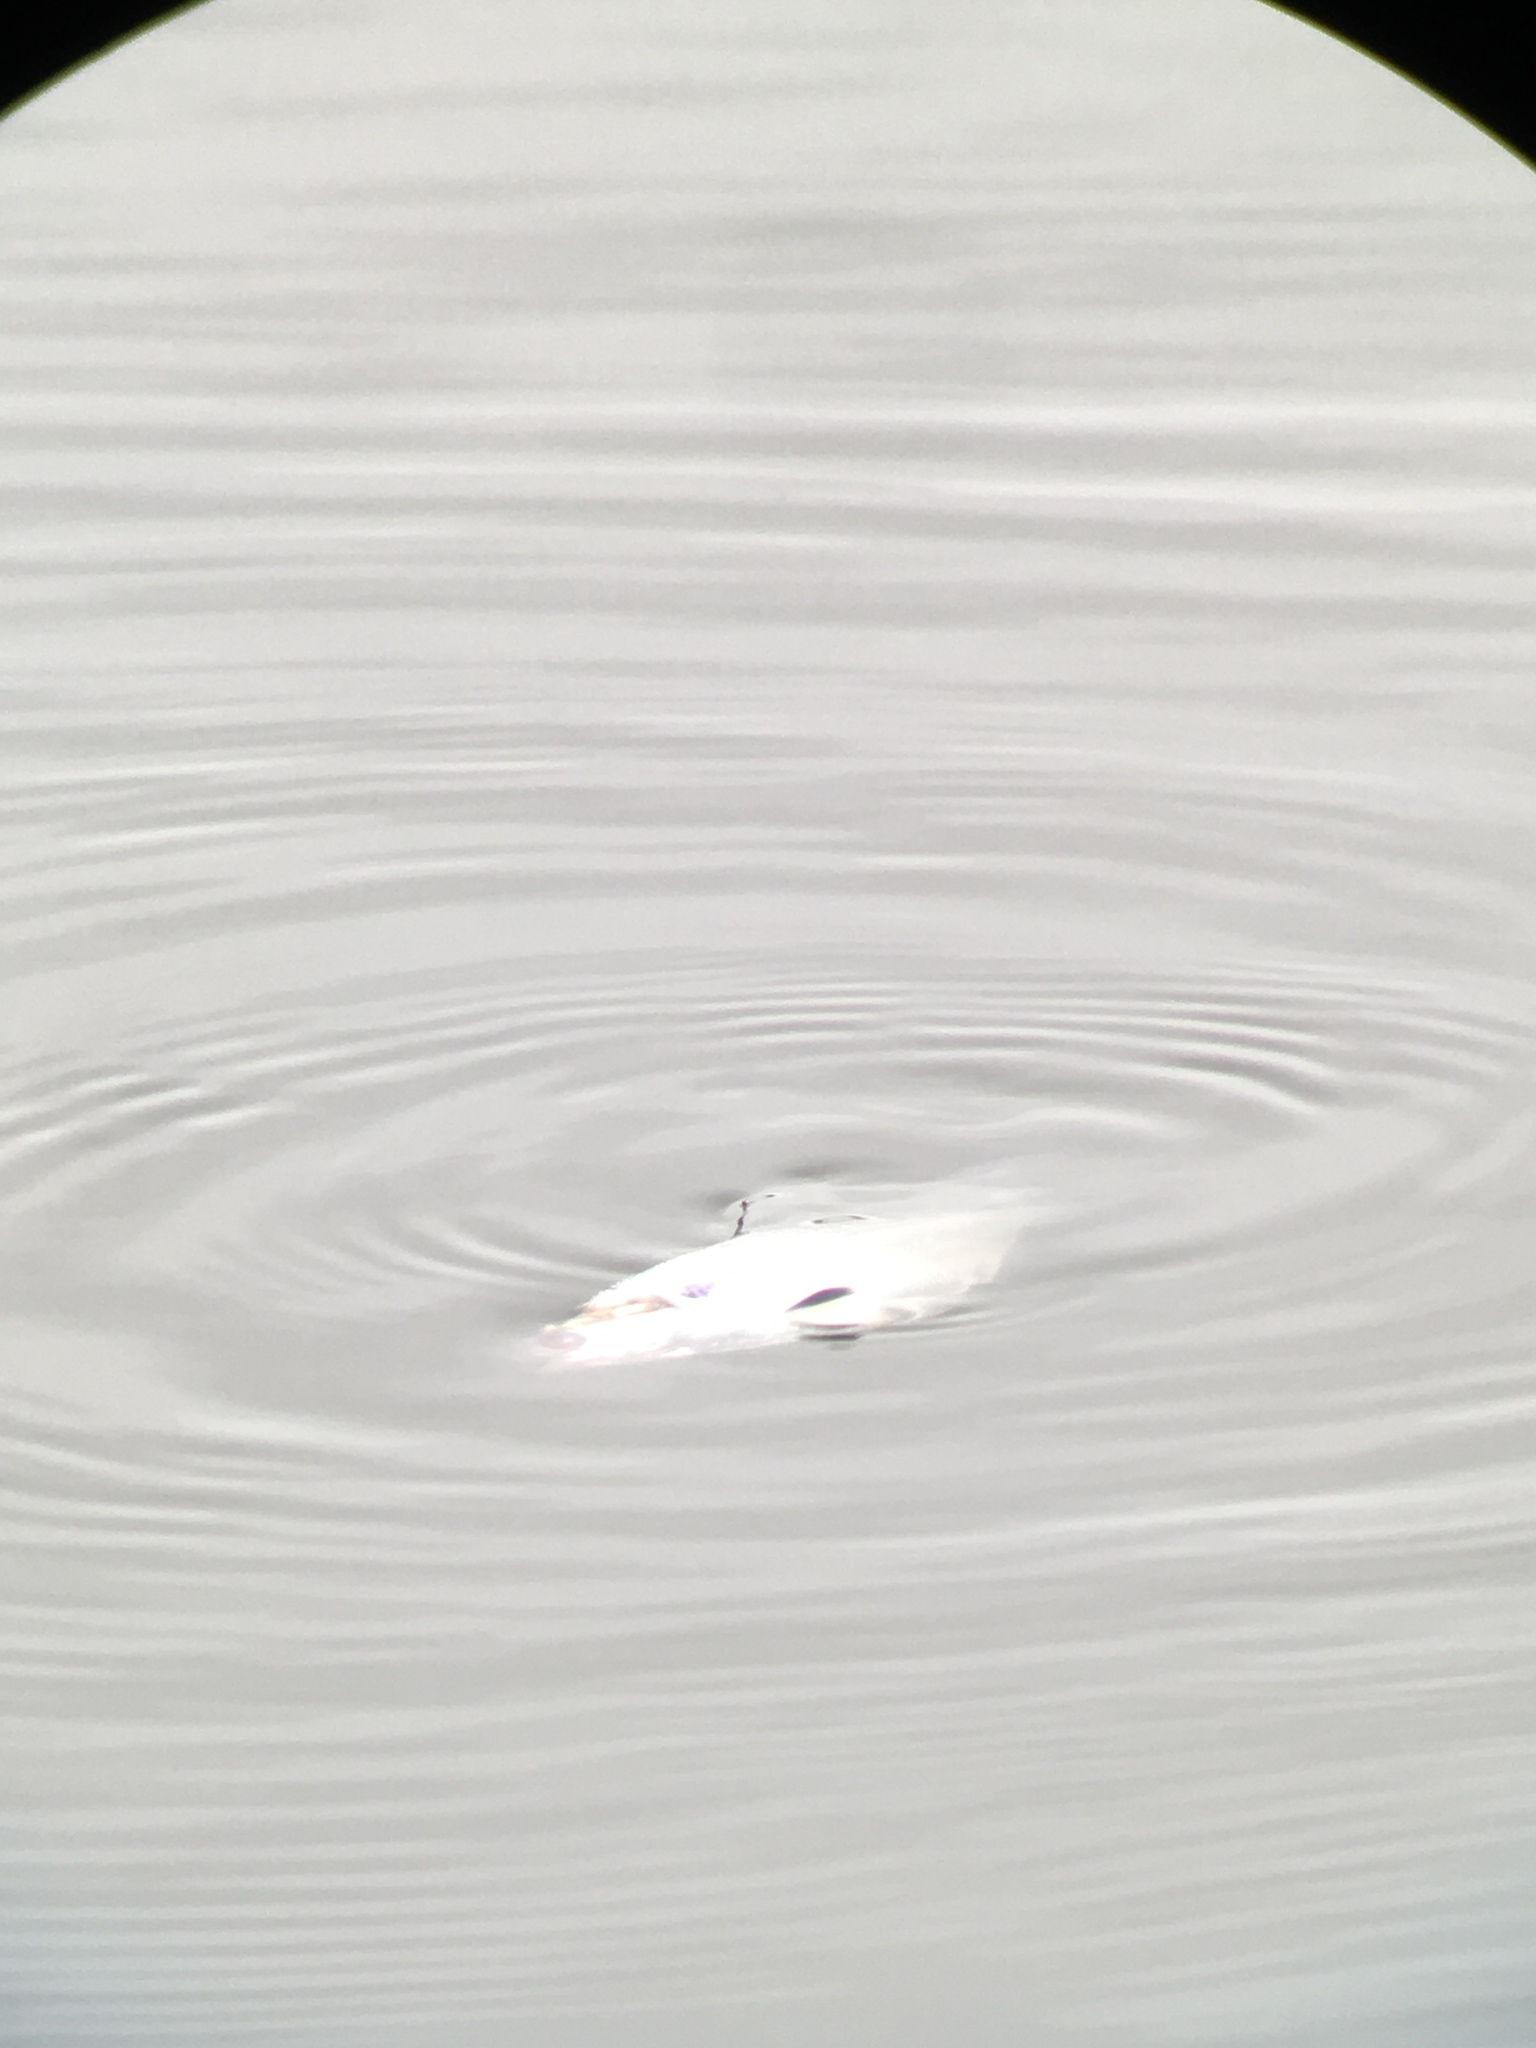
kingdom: Animalia
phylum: Chordata
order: Clupeiformes
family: Clupeidae
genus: Dorosoma
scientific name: Dorosoma cepedianum
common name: Gizzard shad
